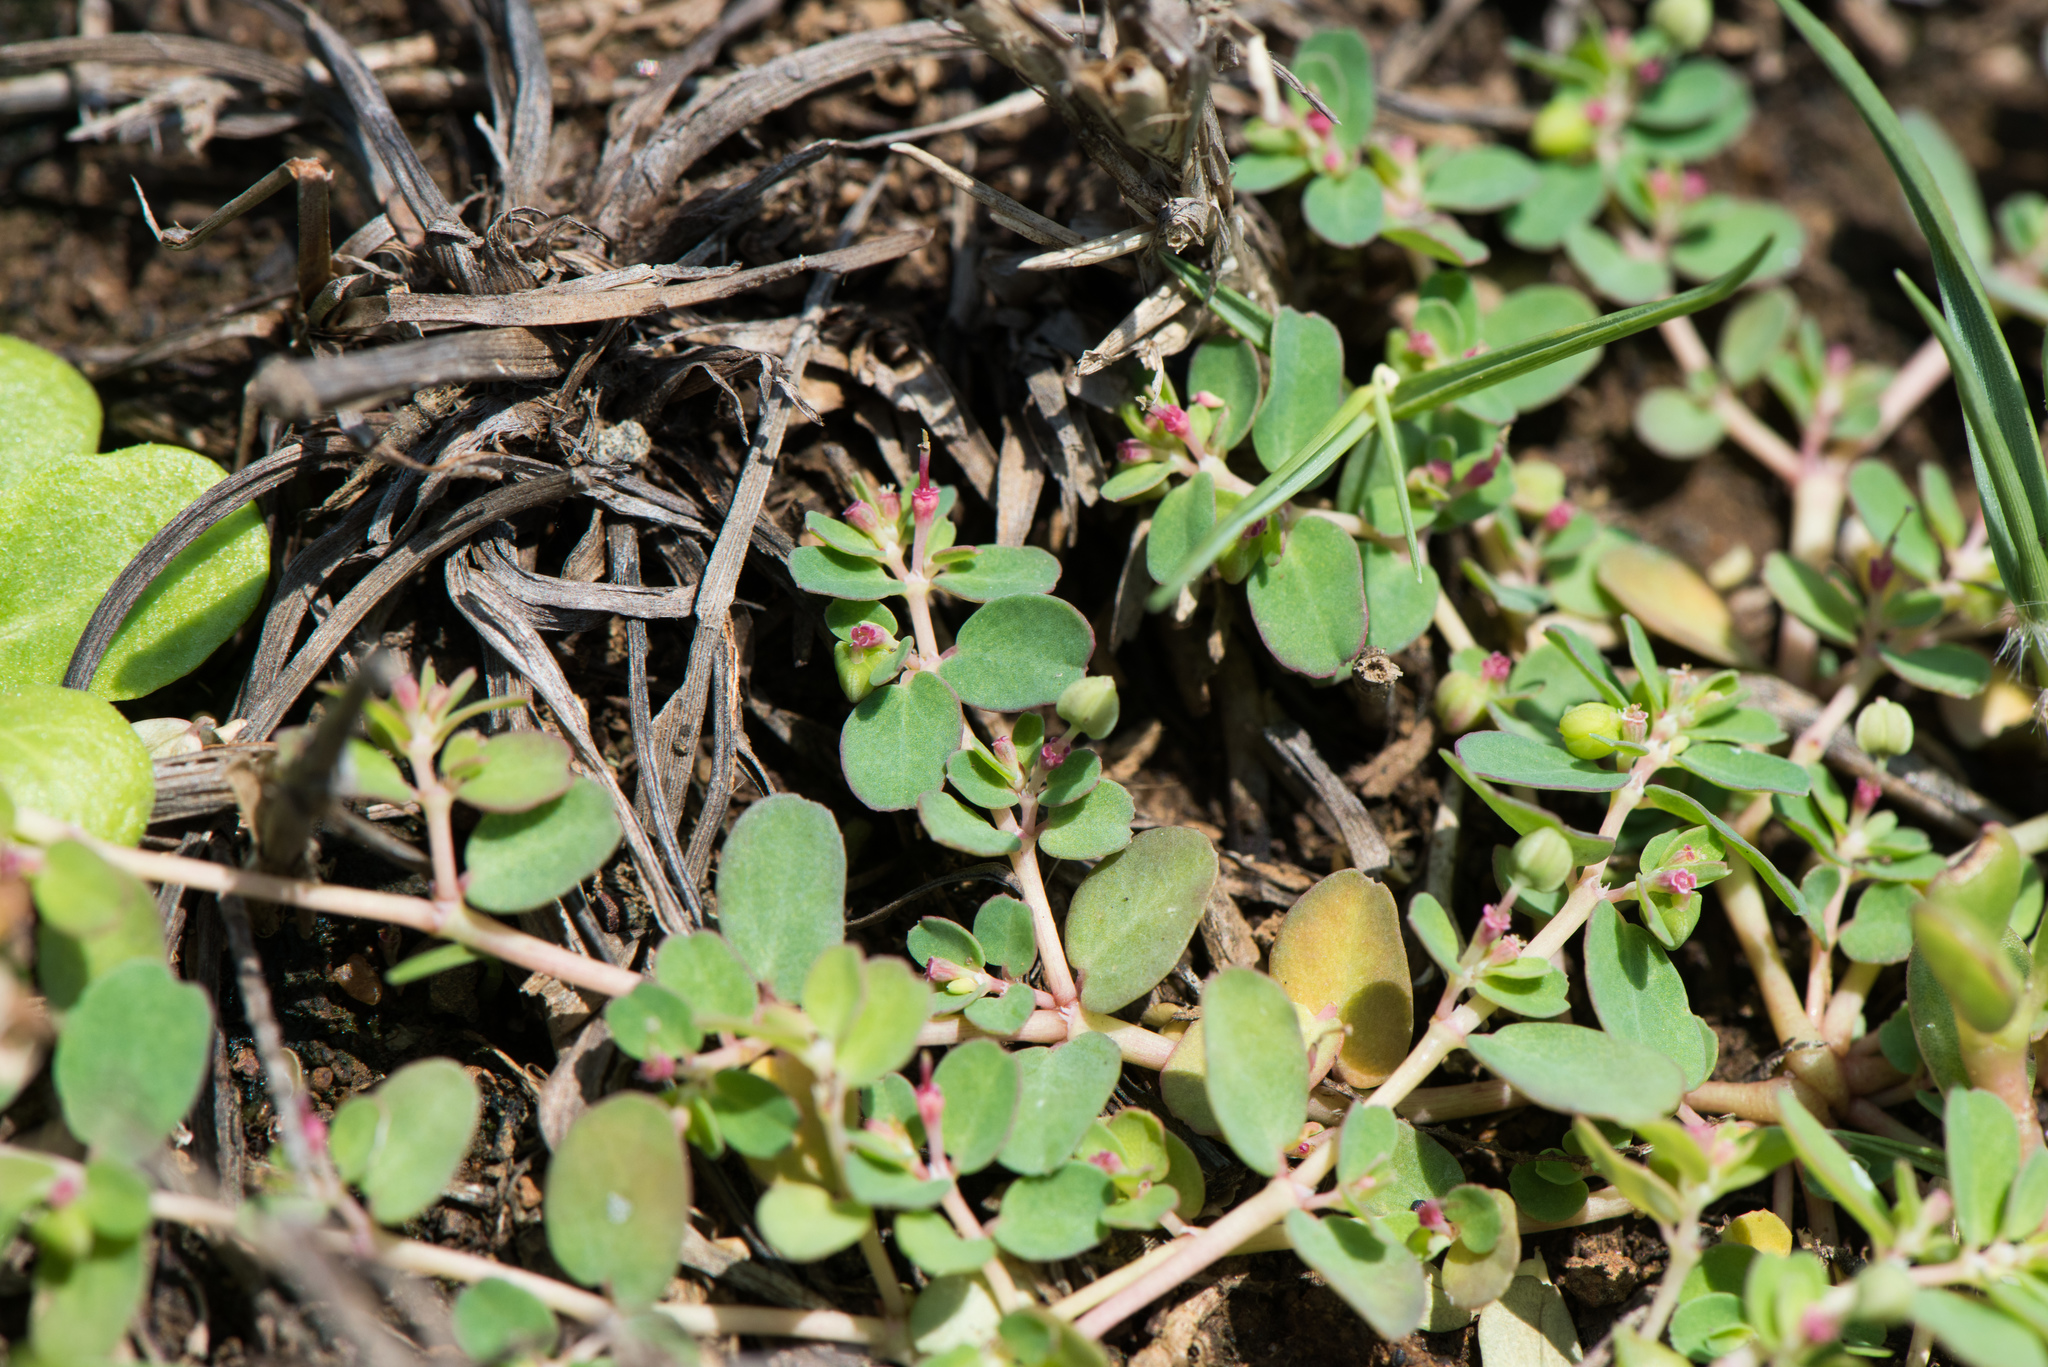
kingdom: Plantae
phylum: Tracheophyta
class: Magnoliopsida
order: Malpighiales
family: Euphorbiaceae
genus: Euphorbia
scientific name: Euphorbia taihsiensis
